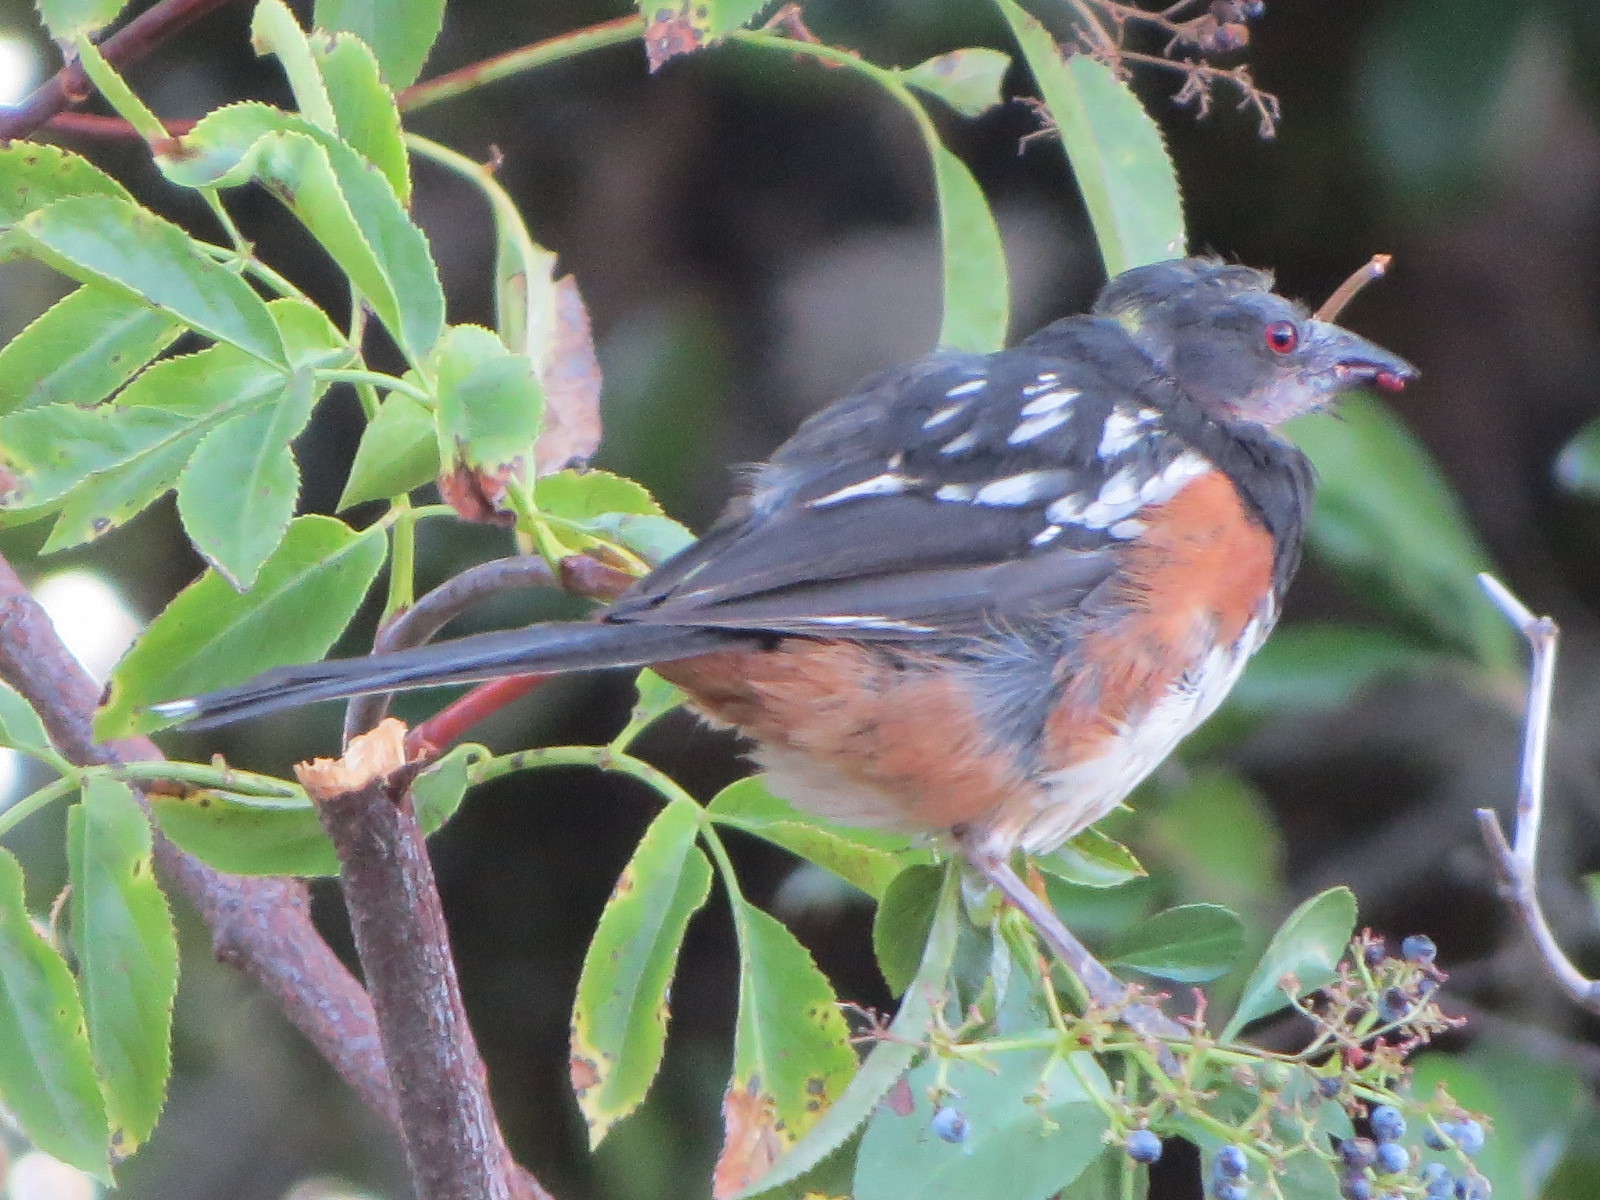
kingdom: Animalia
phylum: Chordata
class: Aves
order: Passeriformes
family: Passerellidae
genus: Pipilo
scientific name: Pipilo maculatus
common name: Spotted towhee
